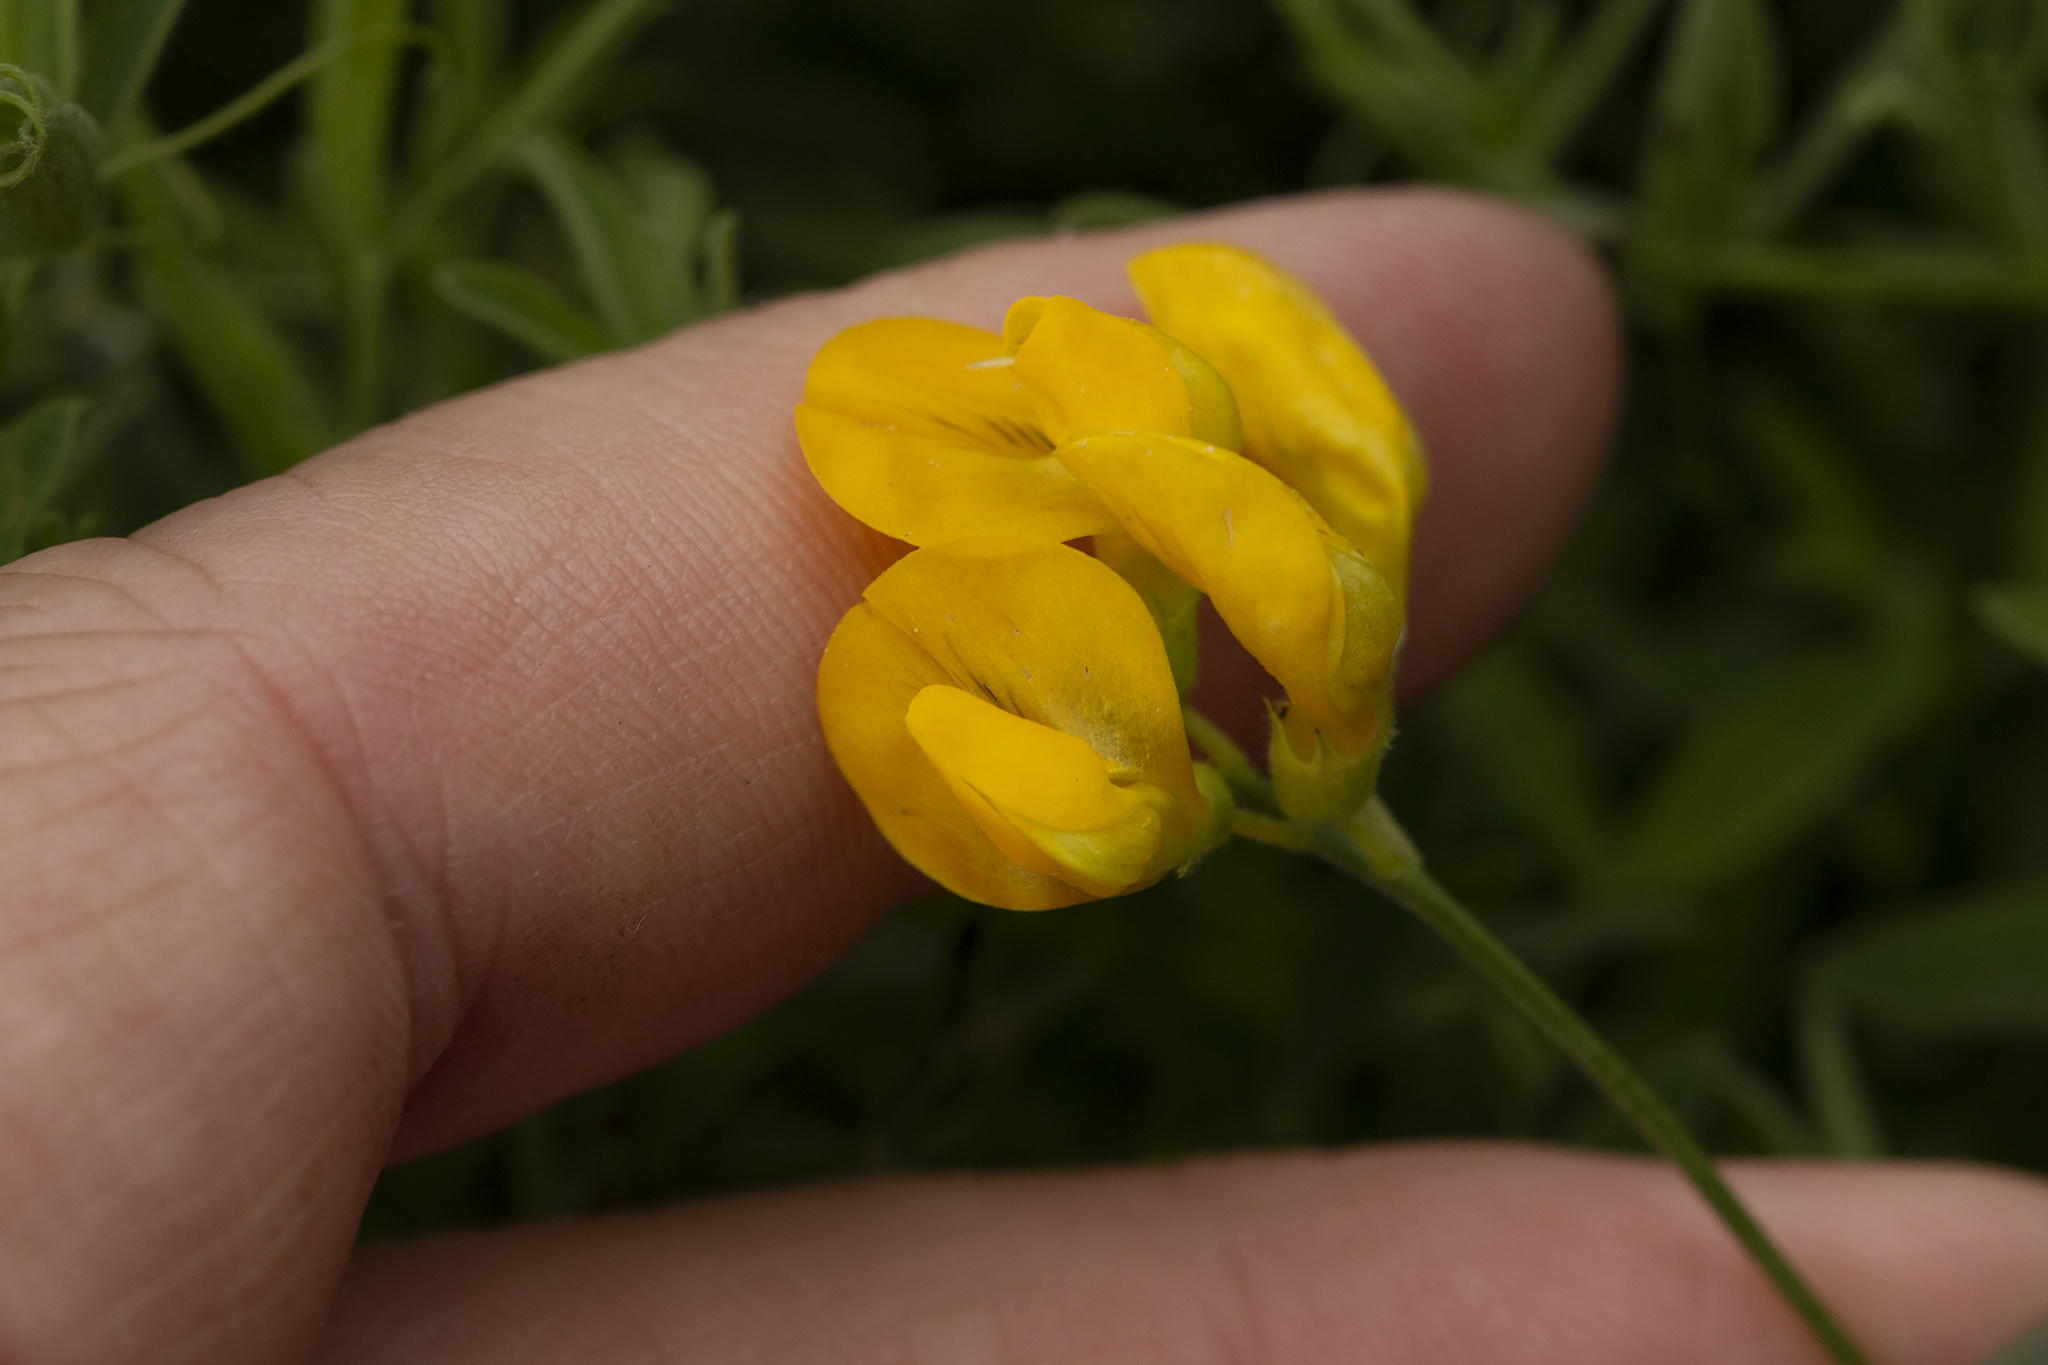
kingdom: Plantae
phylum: Tracheophyta
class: Magnoliopsida
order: Fabales
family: Fabaceae
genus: Lathyrus
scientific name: Lathyrus pratensis
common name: Meadow vetchling
